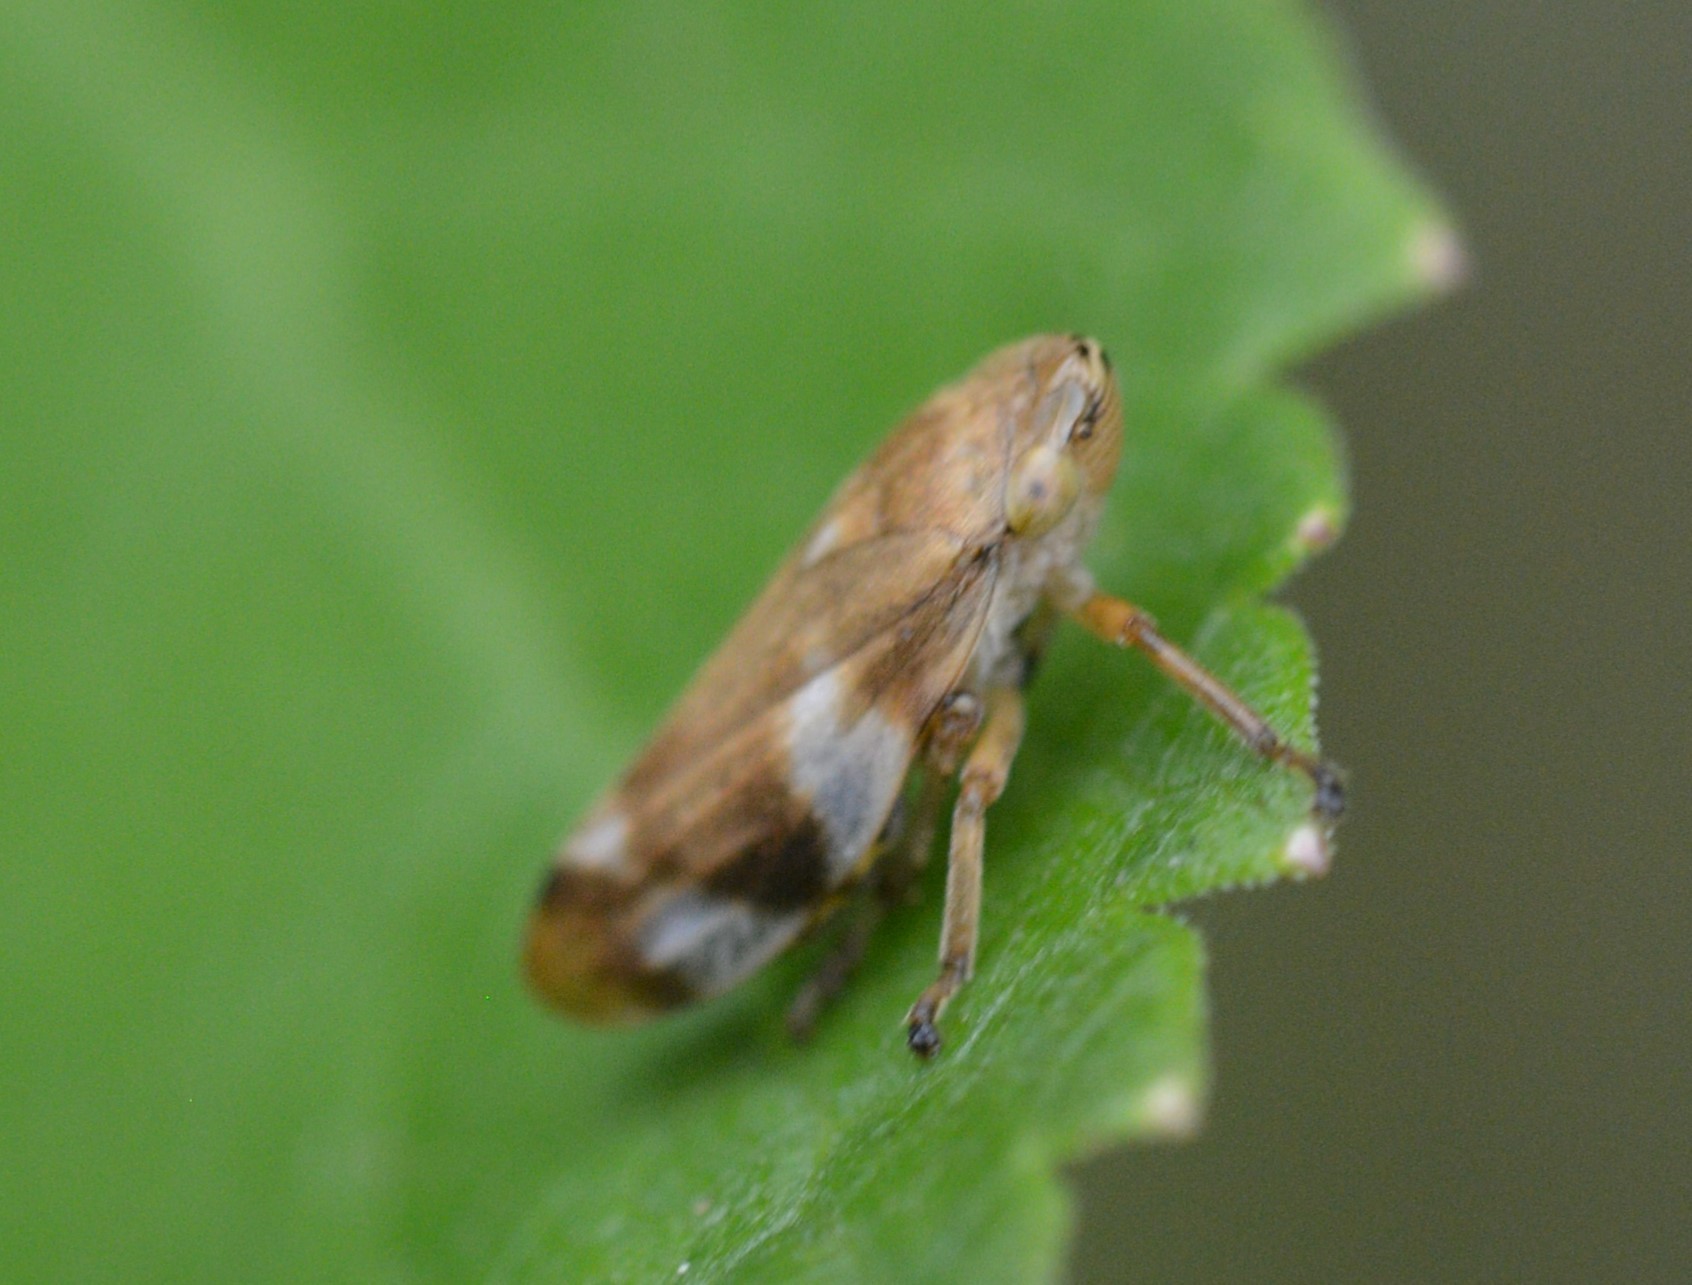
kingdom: Animalia
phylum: Arthropoda
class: Insecta
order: Hemiptera
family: Aphrophoridae
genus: Philaenus
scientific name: Philaenus spumarius
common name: Meadow spittlebug
